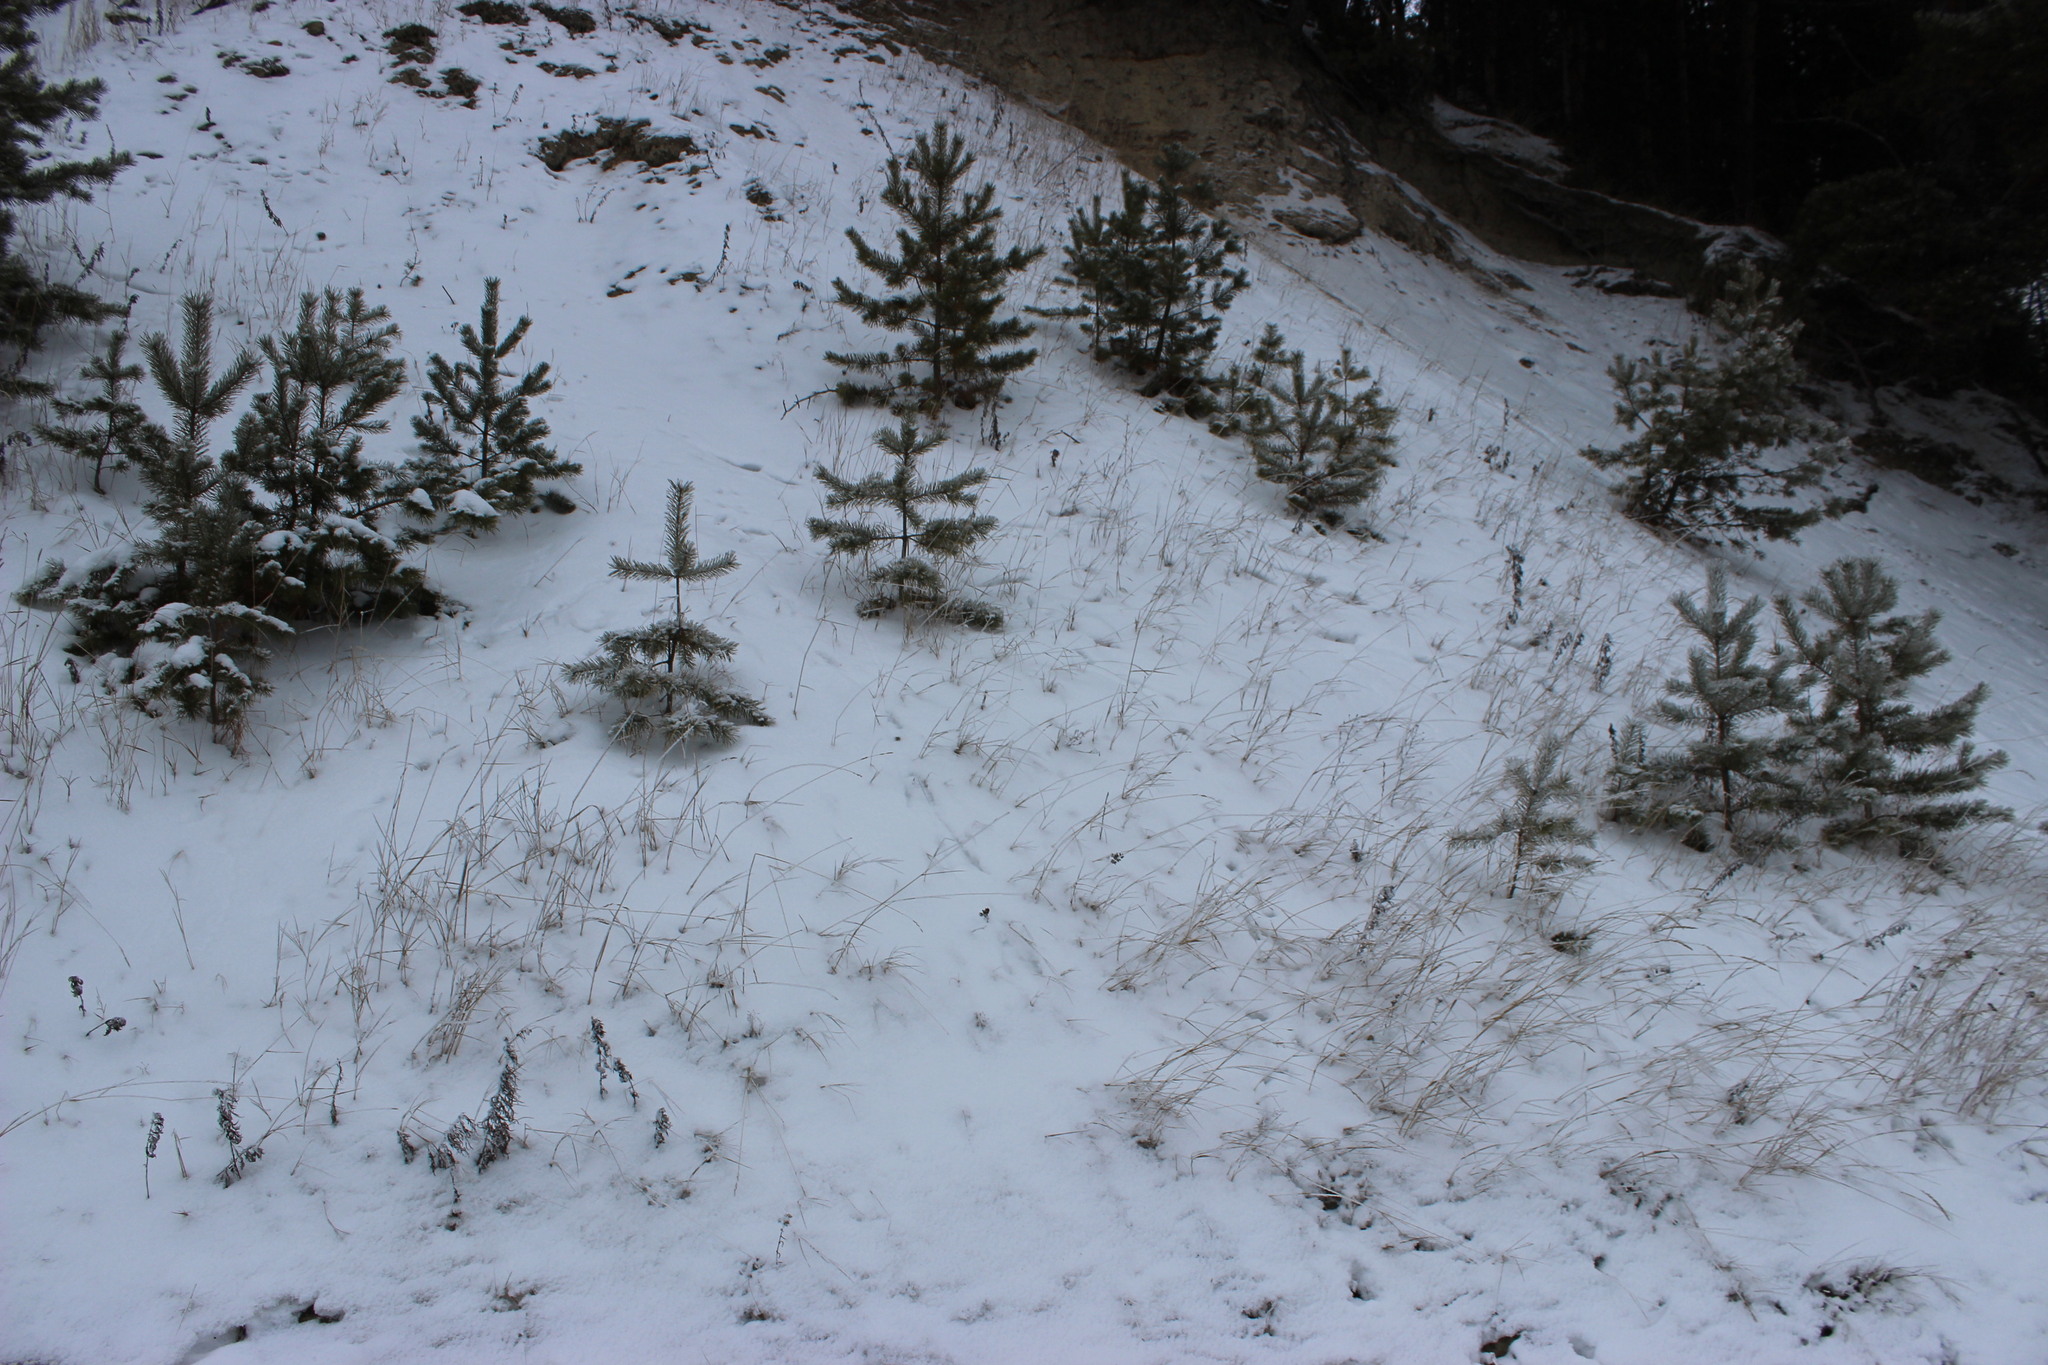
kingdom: Plantae
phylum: Tracheophyta
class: Pinopsida
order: Pinales
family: Pinaceae
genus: Pinus
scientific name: Pinus sylvestris
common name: Scots pine
